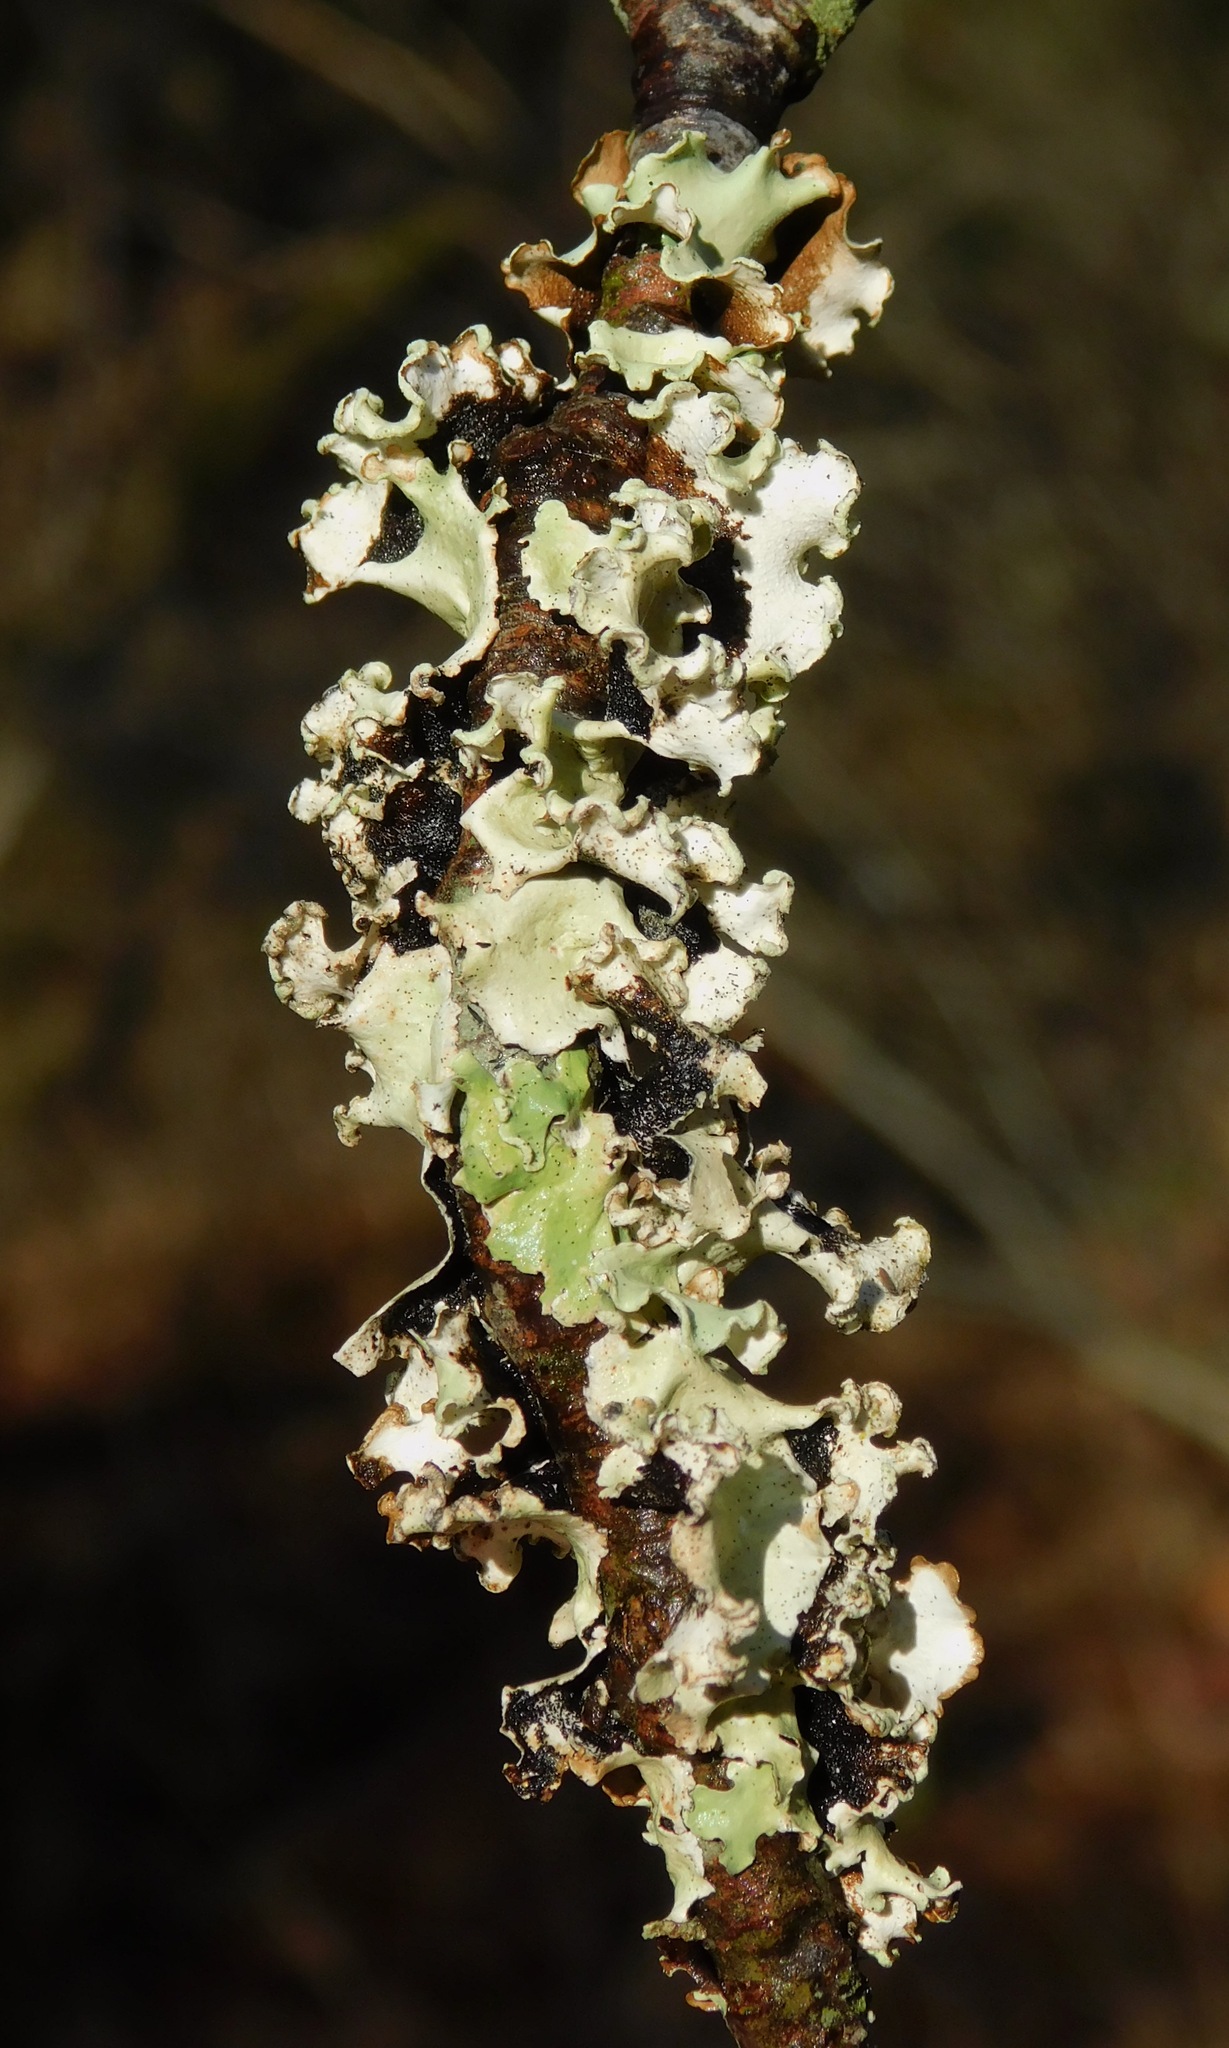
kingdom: Fungi
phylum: Ascomycota
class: Lecanoromycetes
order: Lecanorales
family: Parmeliaceae
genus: Parmotrema
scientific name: Parmotrema austrosinense
